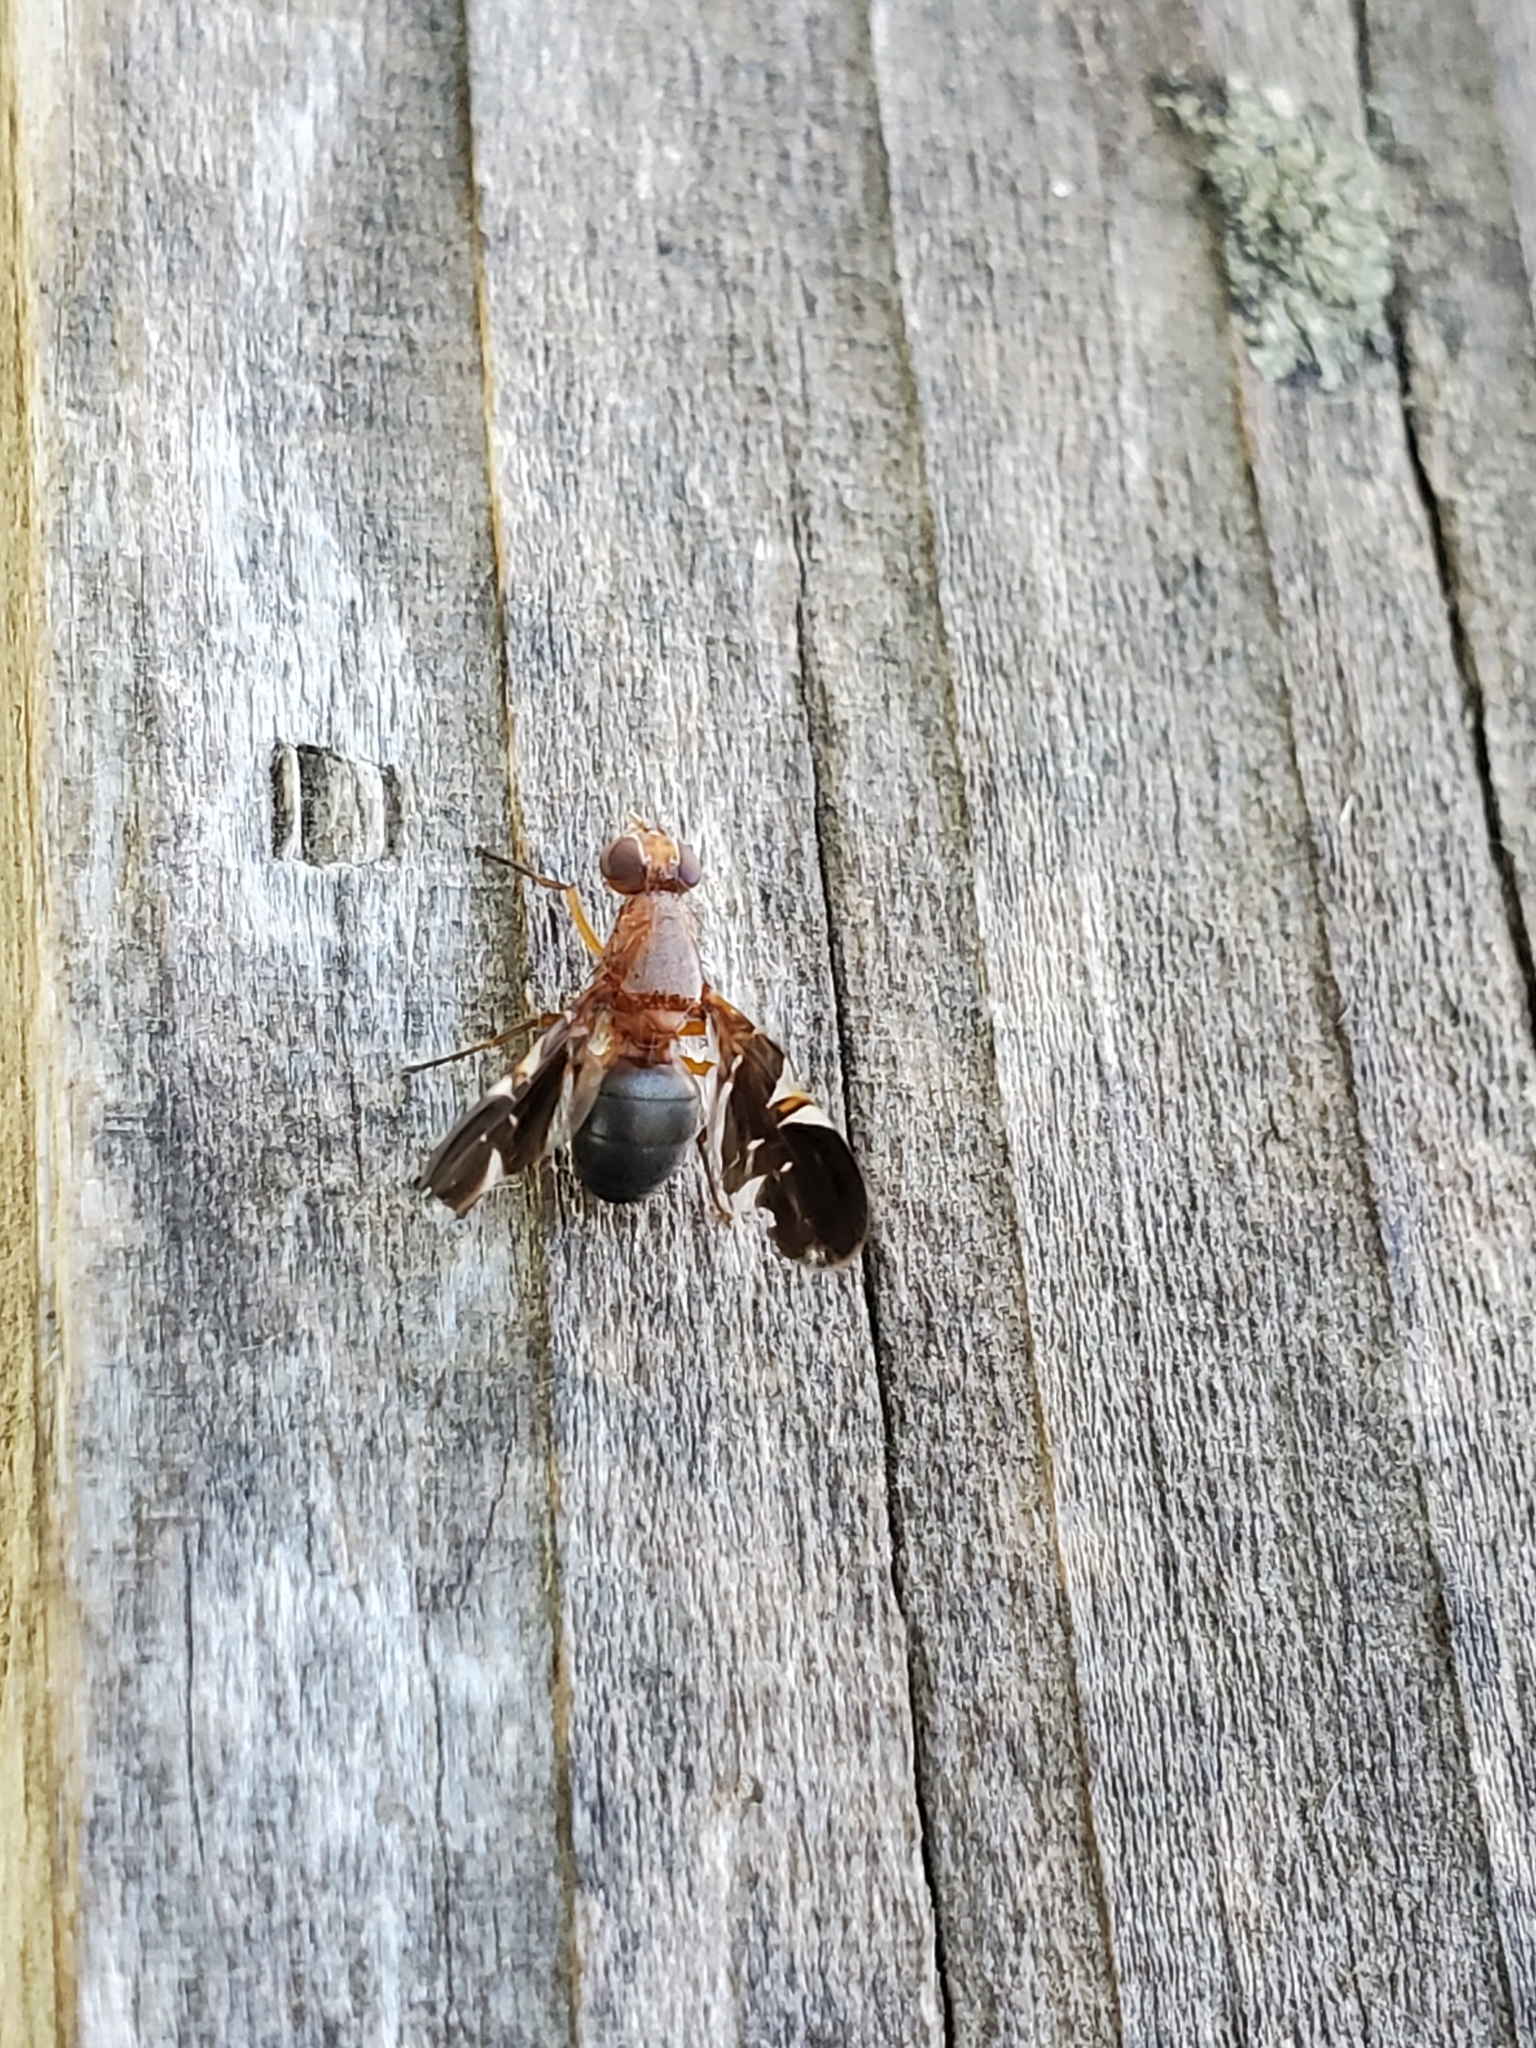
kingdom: Animalia
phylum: Arthropoda
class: Insecta
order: Diptera
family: Ulidiidae
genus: Delphinia
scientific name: Delphinia picta
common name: Common picture-winged fly
